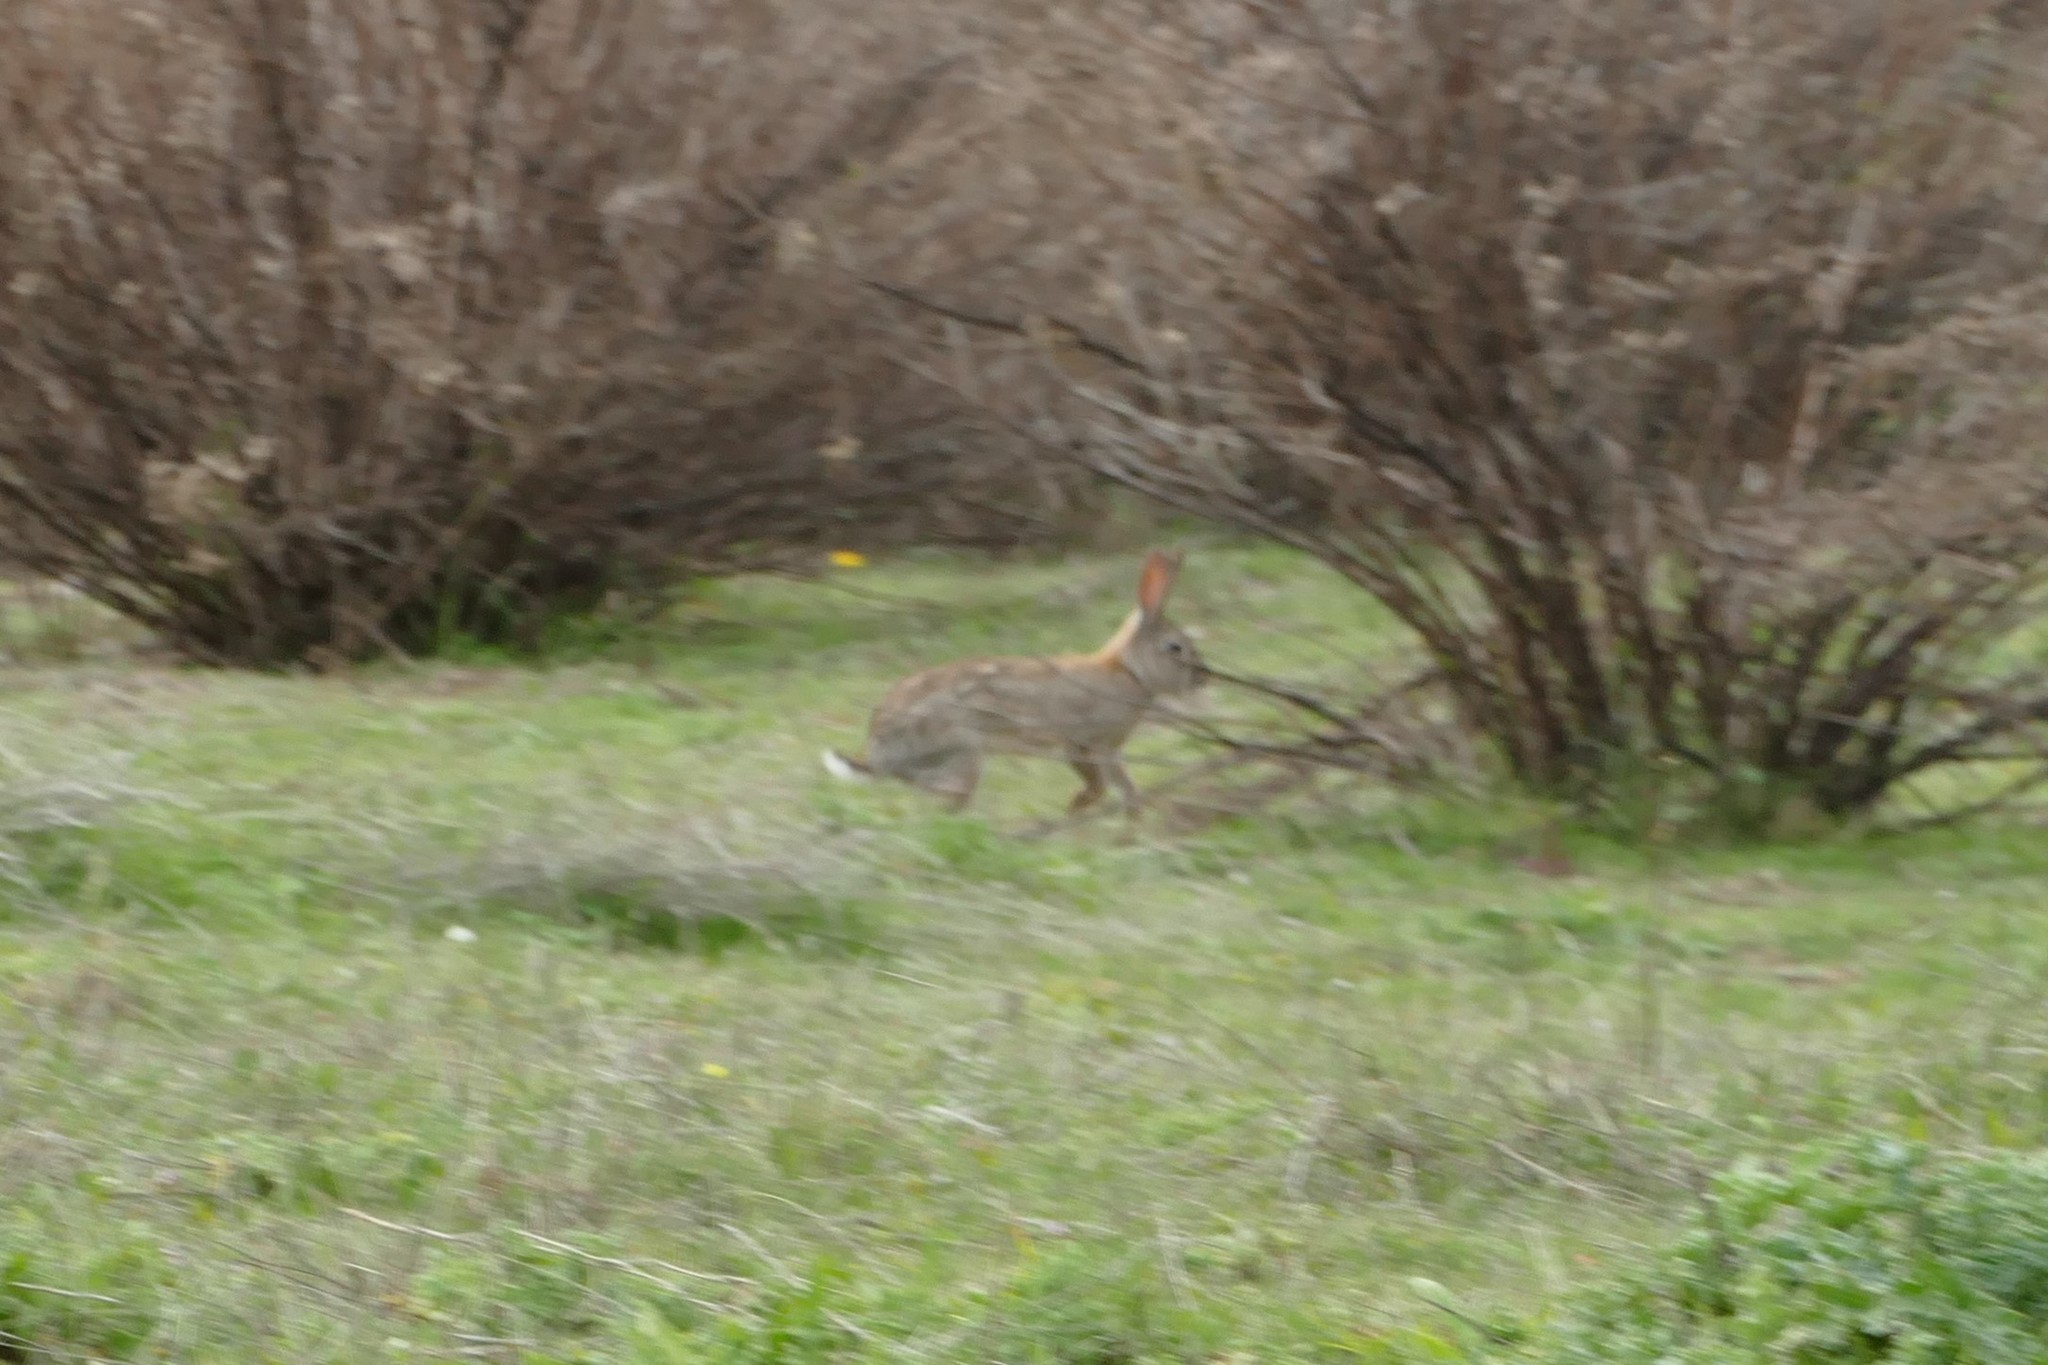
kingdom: Animalia
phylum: Chordata
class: Mammalia
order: Lagomorpha
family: Leporidae
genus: Oryctolagus
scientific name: Oryctolagus cuniculus
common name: European rabbit
